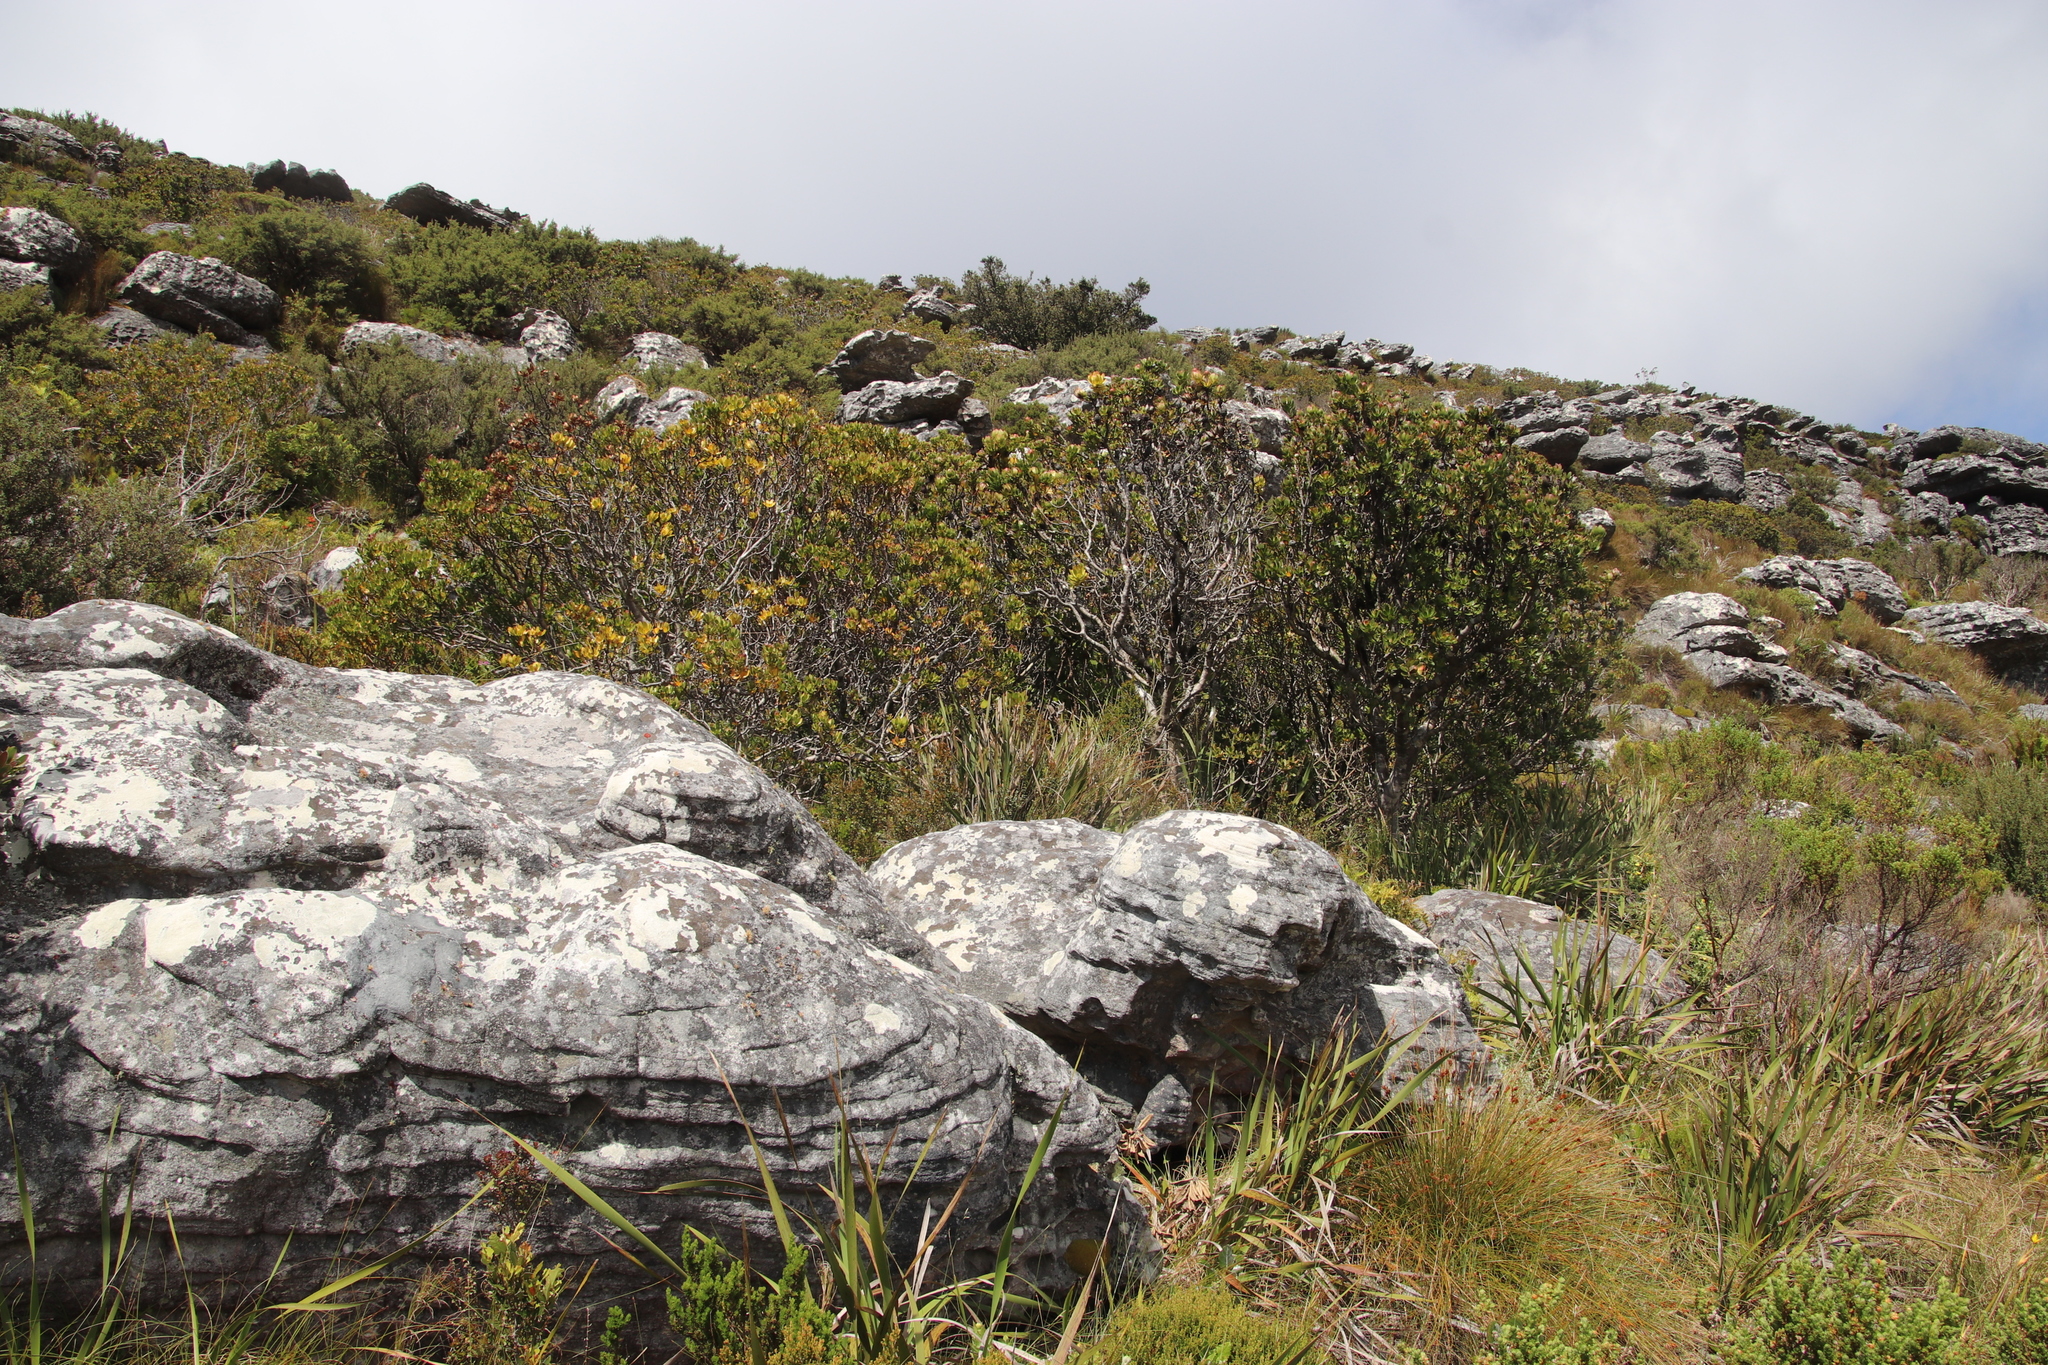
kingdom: Plantae
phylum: Tracheophyta
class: Magnoliopsida
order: Proteales
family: Proteaceae
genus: Leucadendron
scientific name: Leucadendron strobilinum
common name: Mountain rose
